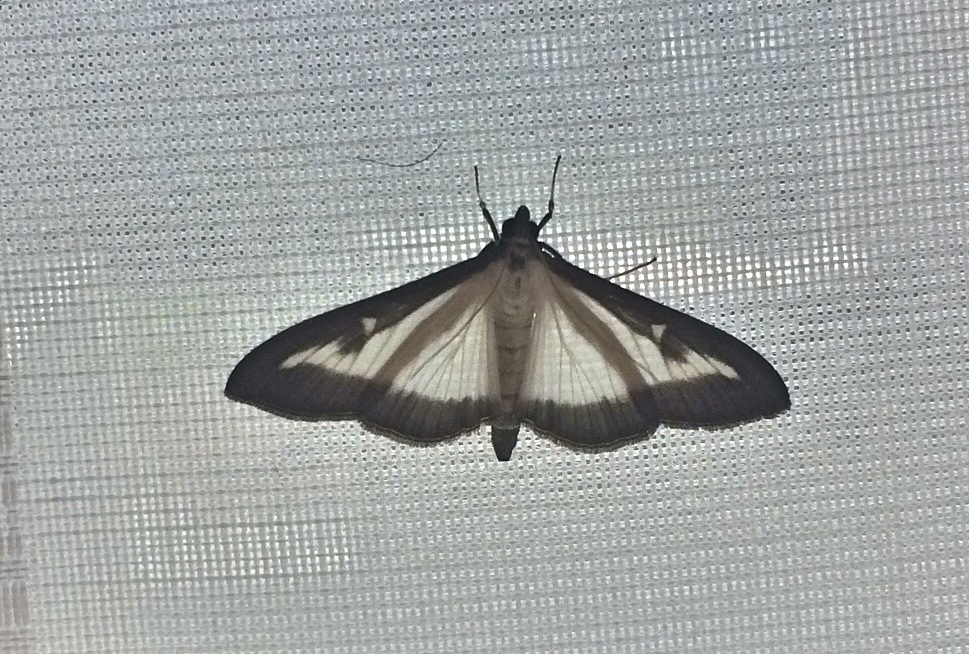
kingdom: Animalia
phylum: Arthropoda
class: Insecta
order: Lepidoptera
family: Crambidae
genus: Cydalima
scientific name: Cydalima perspectalis
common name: Box tree moth
